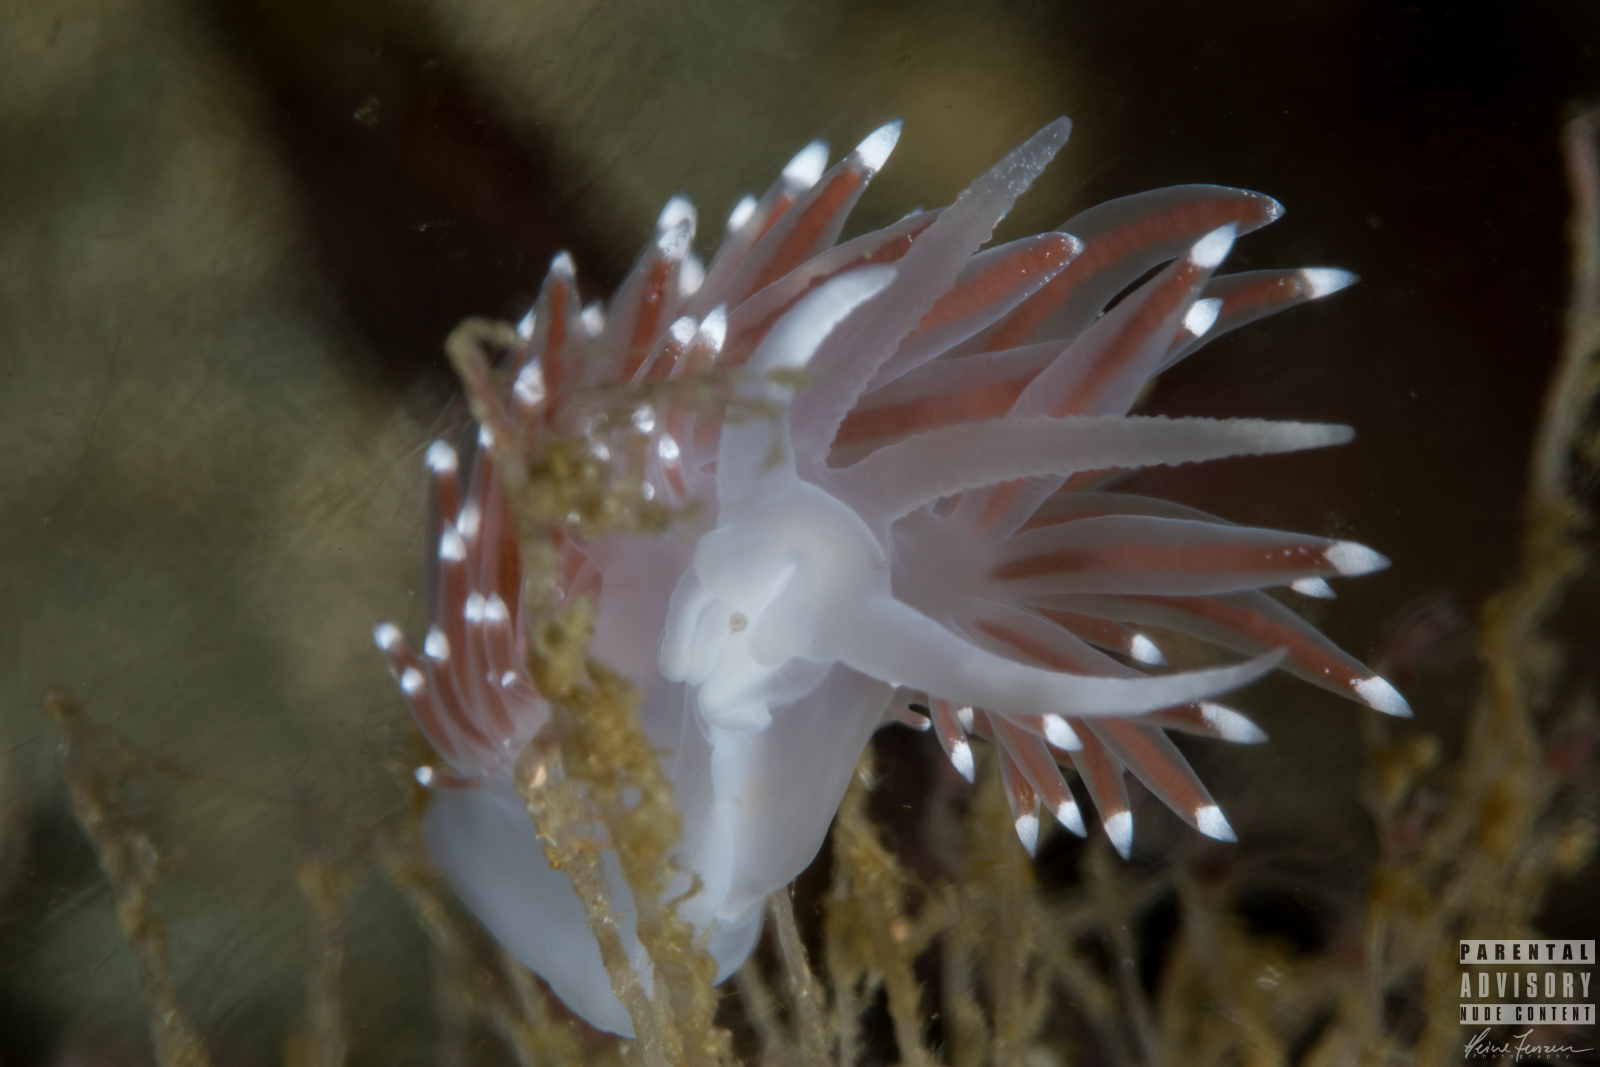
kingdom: Animalia
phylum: Mollusca
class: Gastropoda
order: Nudibranchia
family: Coryphellidae
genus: Coryphella
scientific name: Coryphella browni
